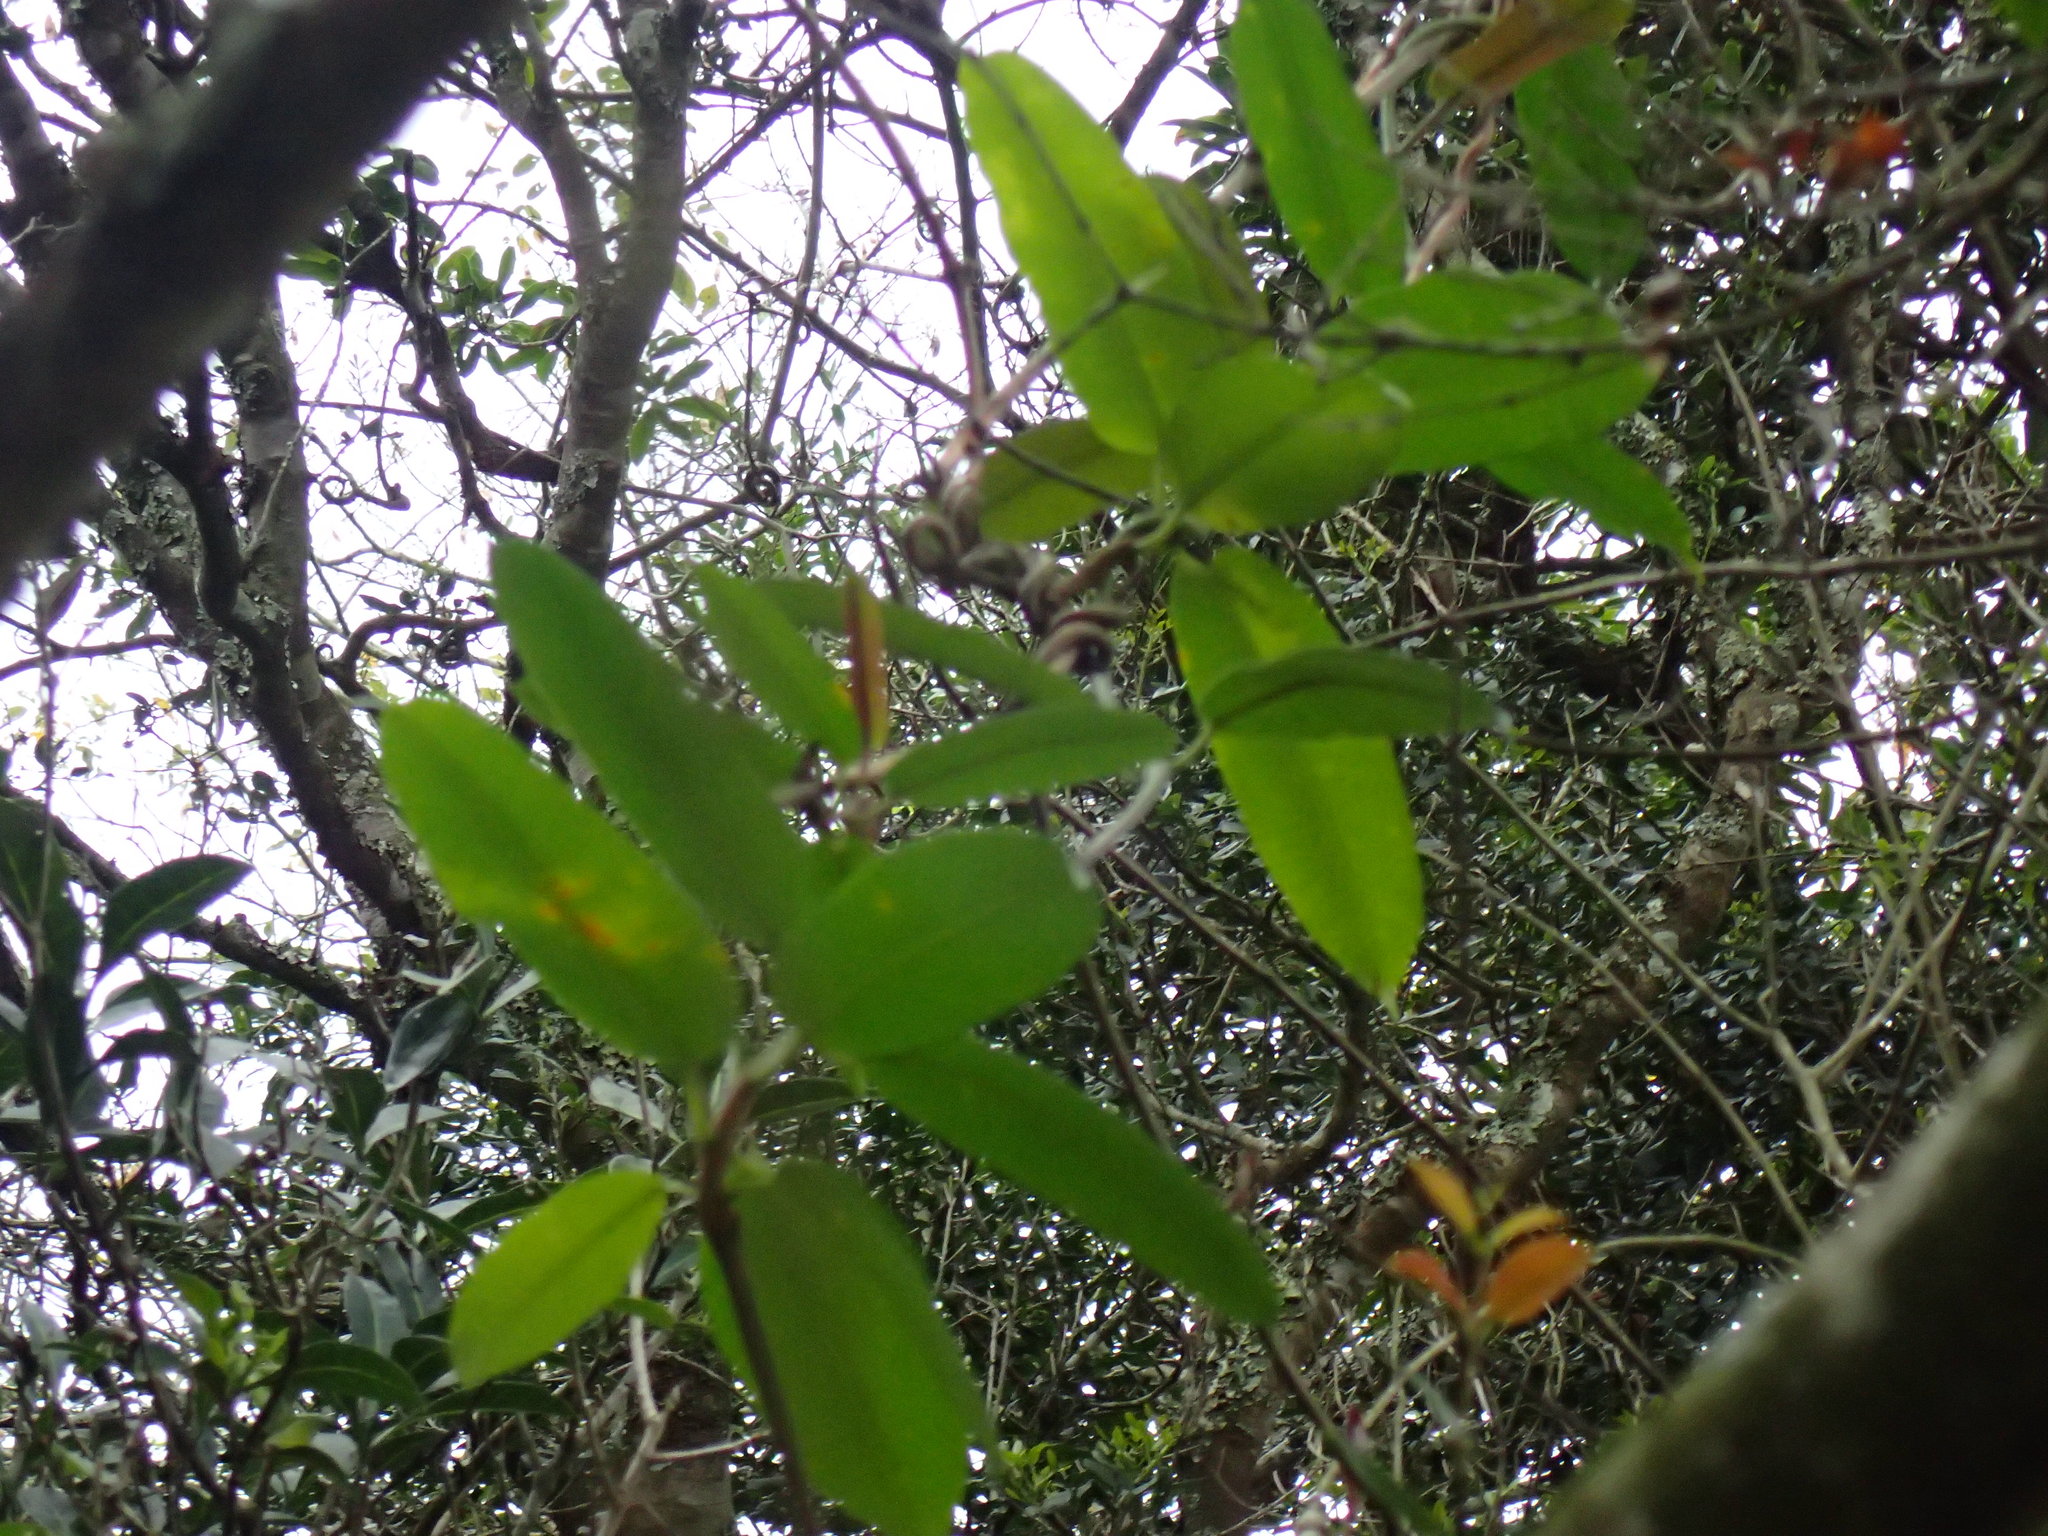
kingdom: Plantae
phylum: Tracheophyta
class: Magnoliopsida
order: Gentianales
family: Apocynaceae
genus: Petopentia
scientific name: Petopentia natalensis
